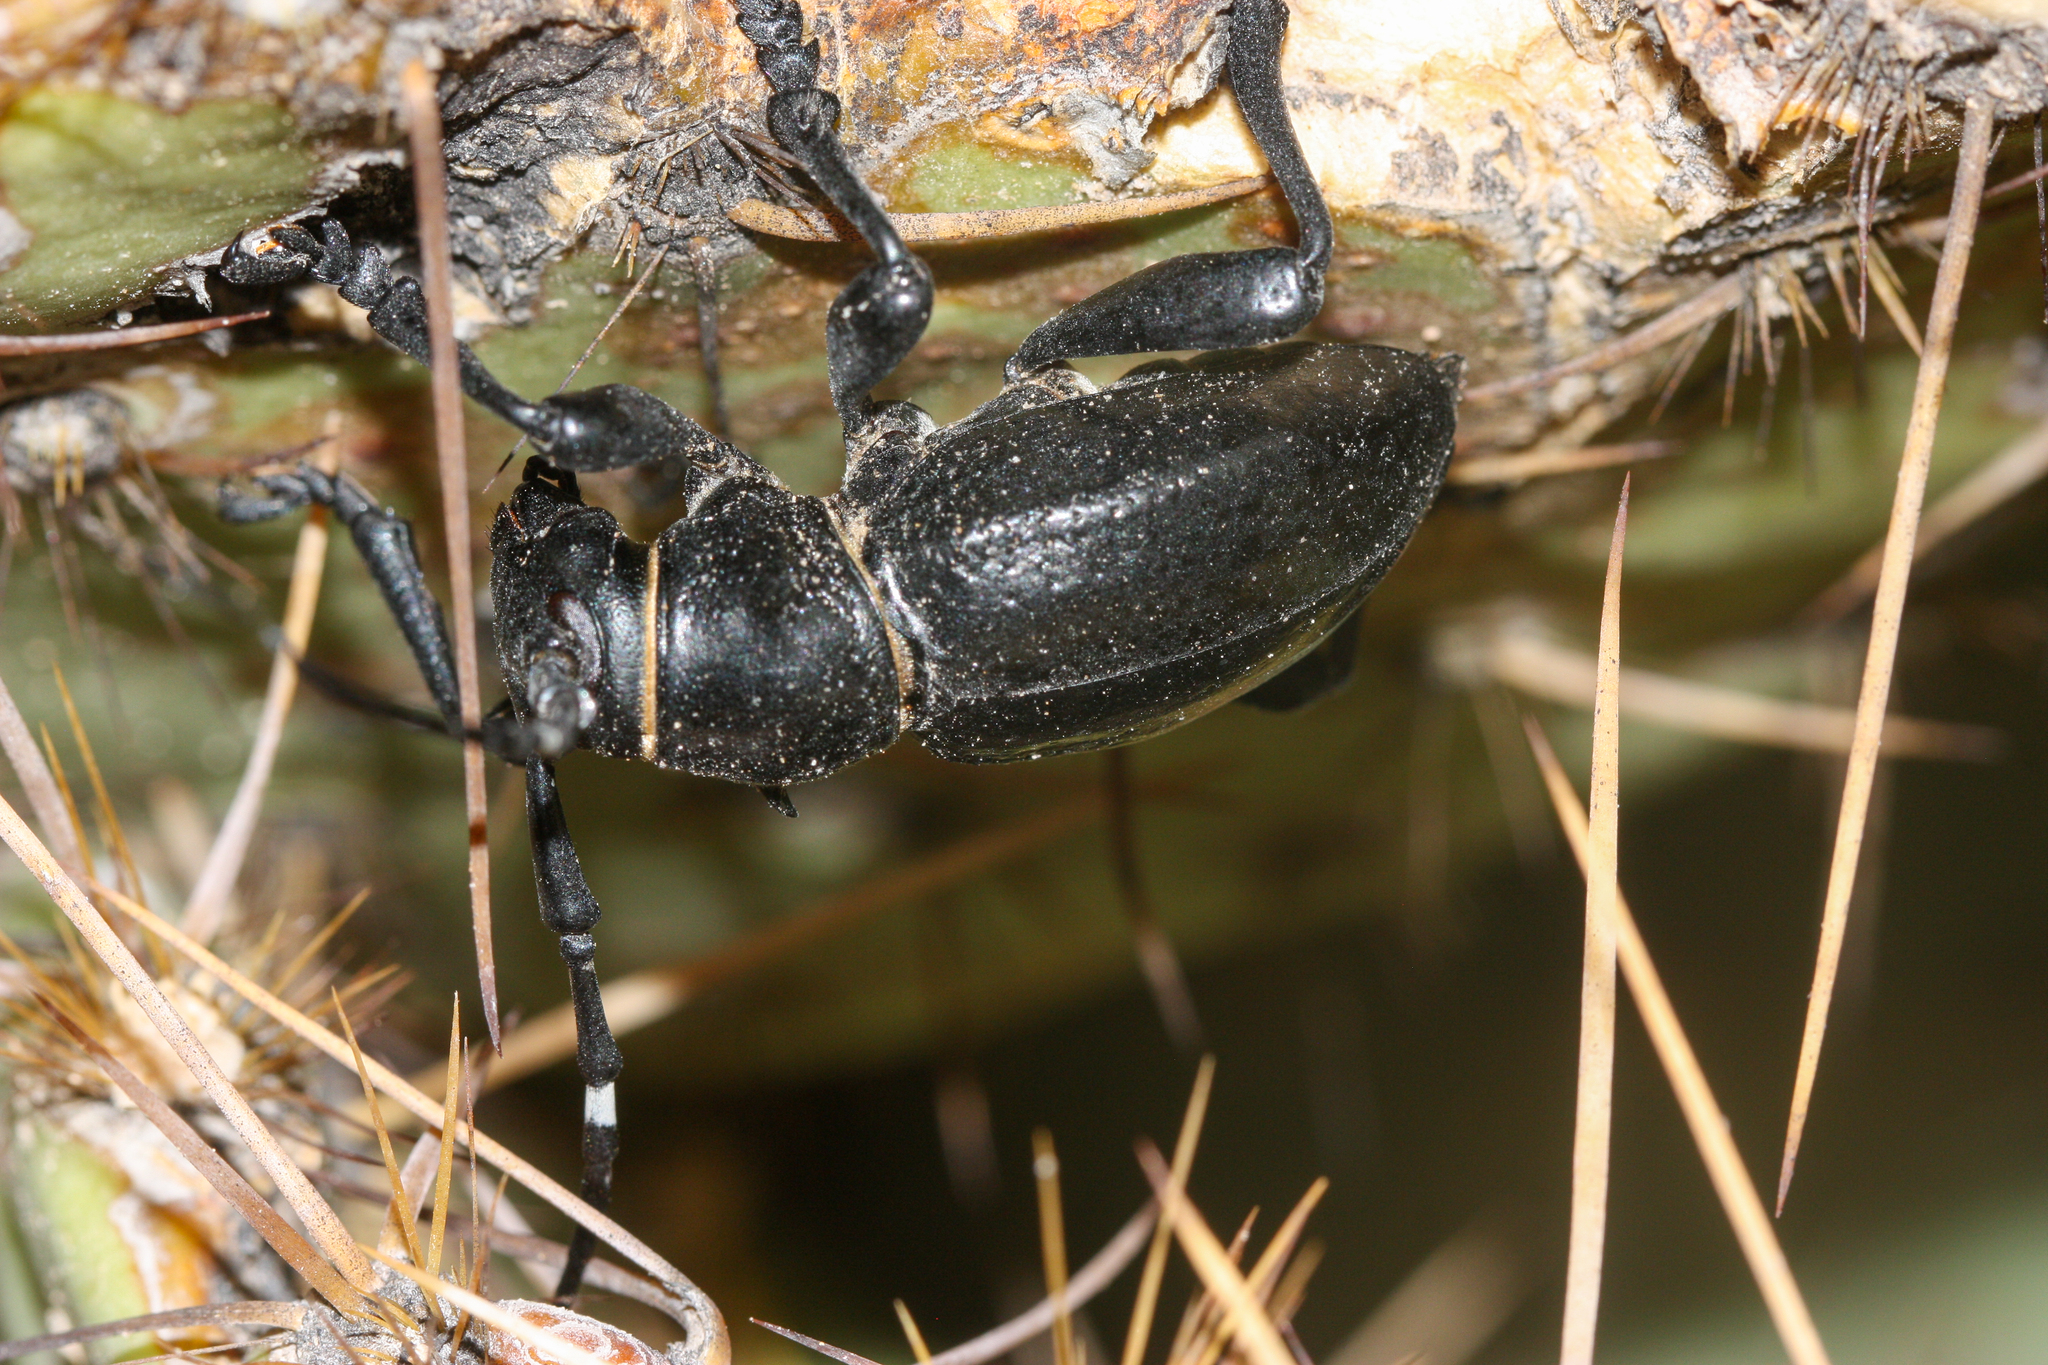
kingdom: Animalia
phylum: Arthropoda
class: Insecta
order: Coleoptera
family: Cerambycidae
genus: Moneilema
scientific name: Moneilema gigas
